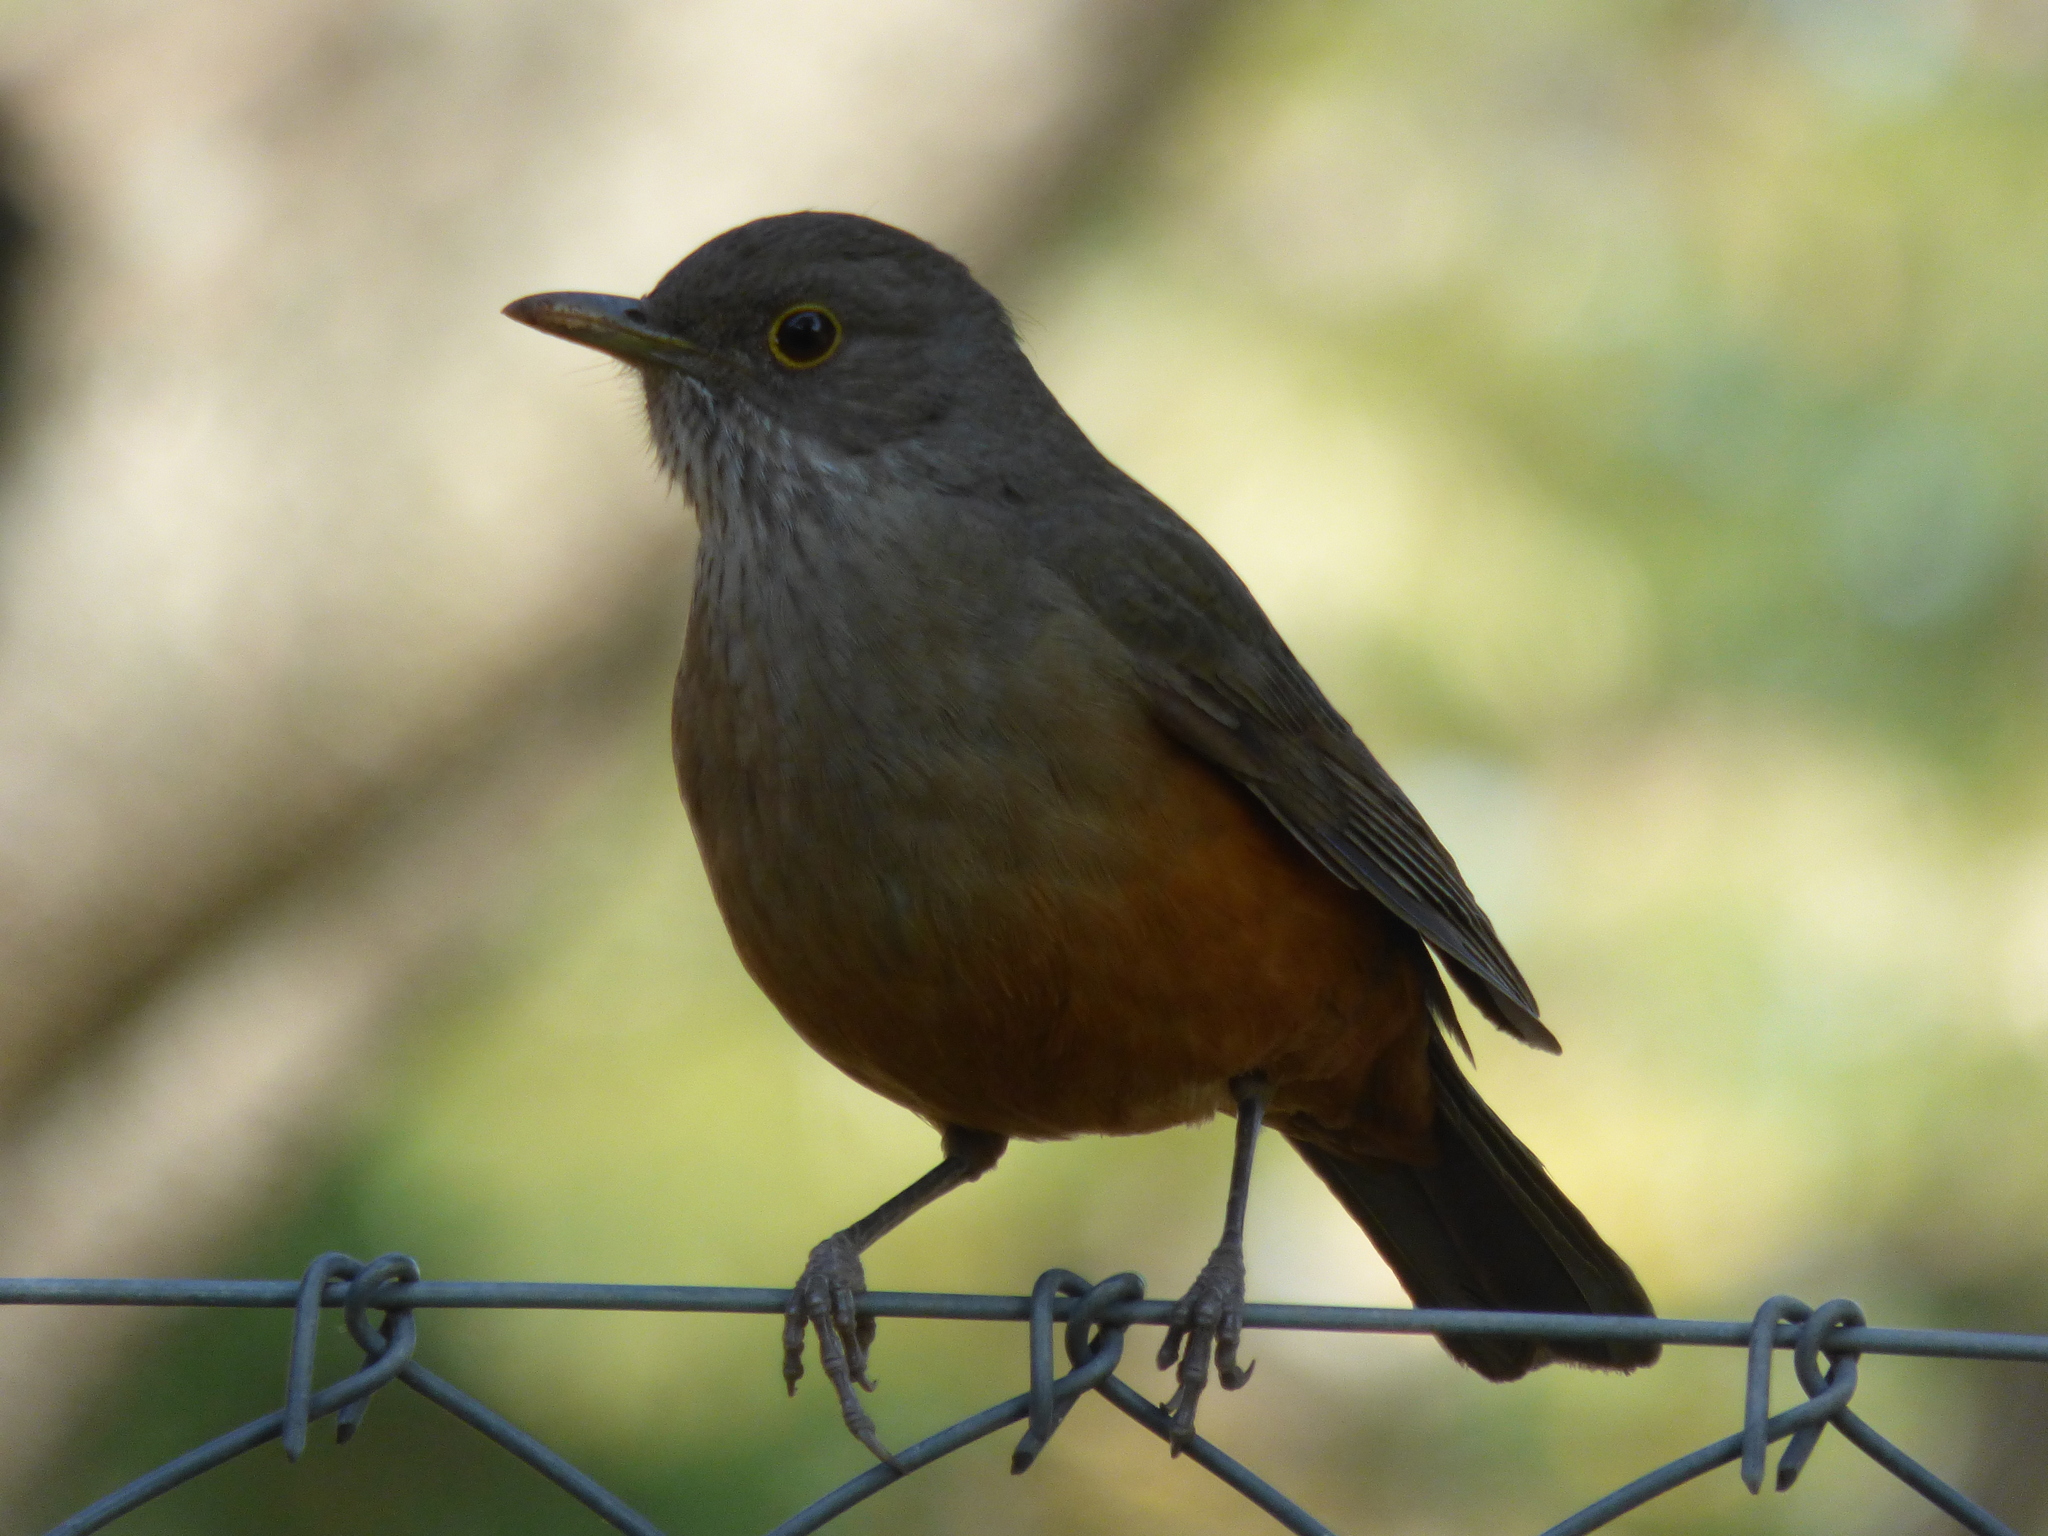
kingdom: Animalia
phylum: Chordata
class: Aves
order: Passeriformes
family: Turdidae
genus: Turdus
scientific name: Turdus rufiventris
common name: Rufous-bellied thrush
